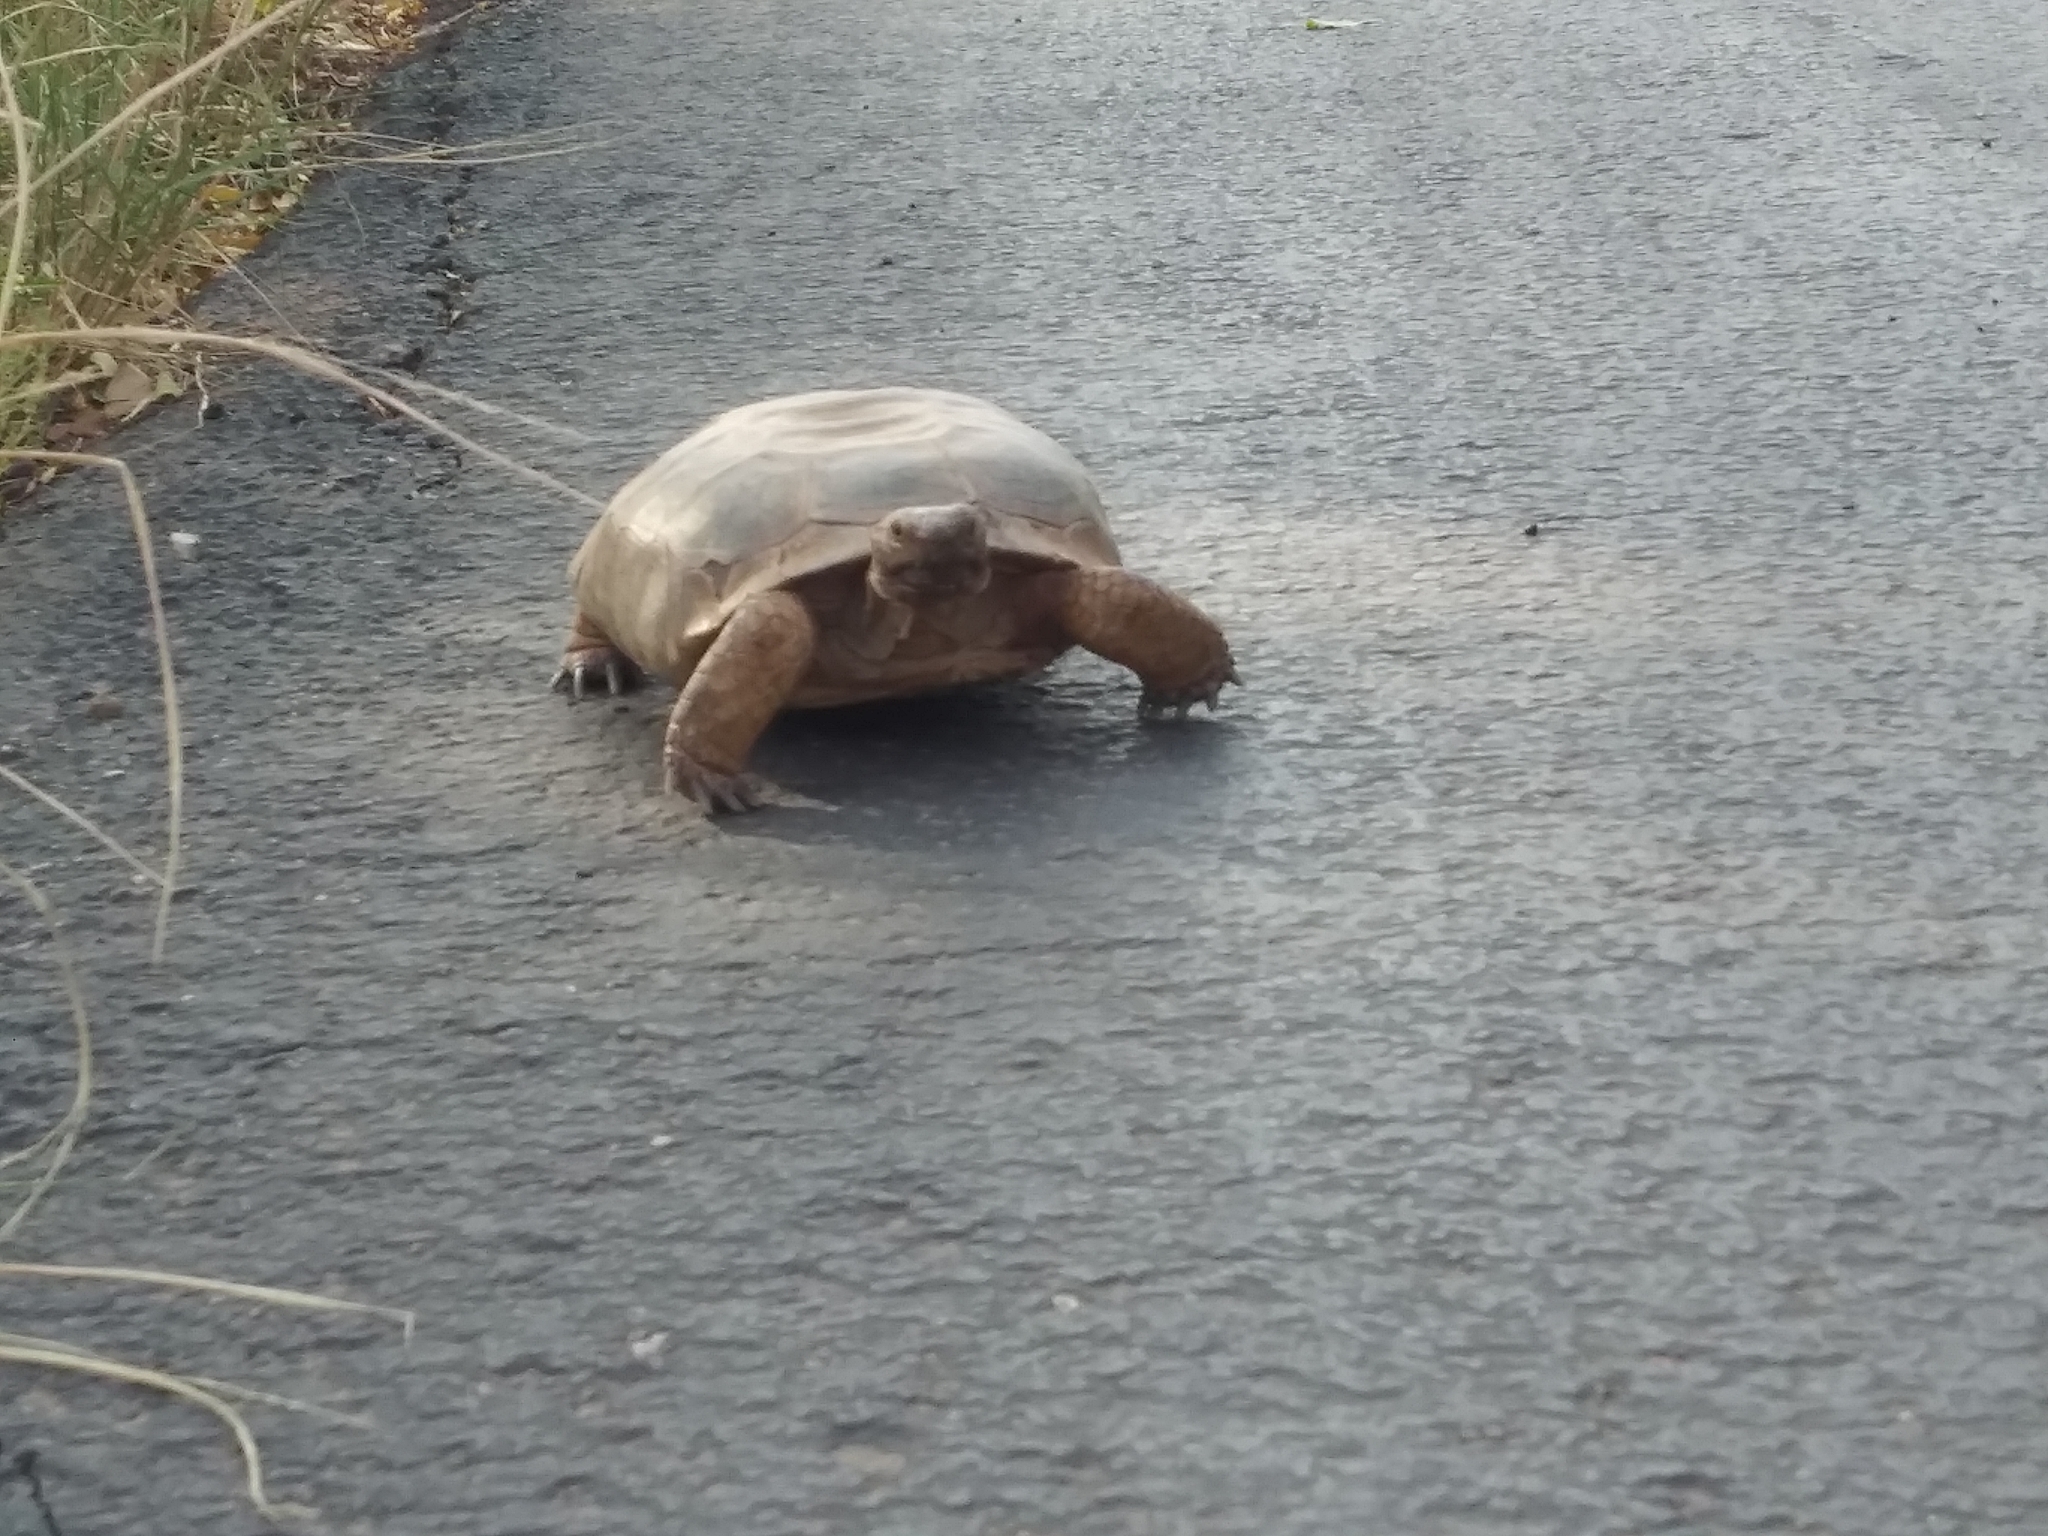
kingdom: Animalia
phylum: Chordata
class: Testudines
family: Testudinidae
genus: Gopherus
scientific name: Gopherus agassizii
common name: Mojave desert tortoise
